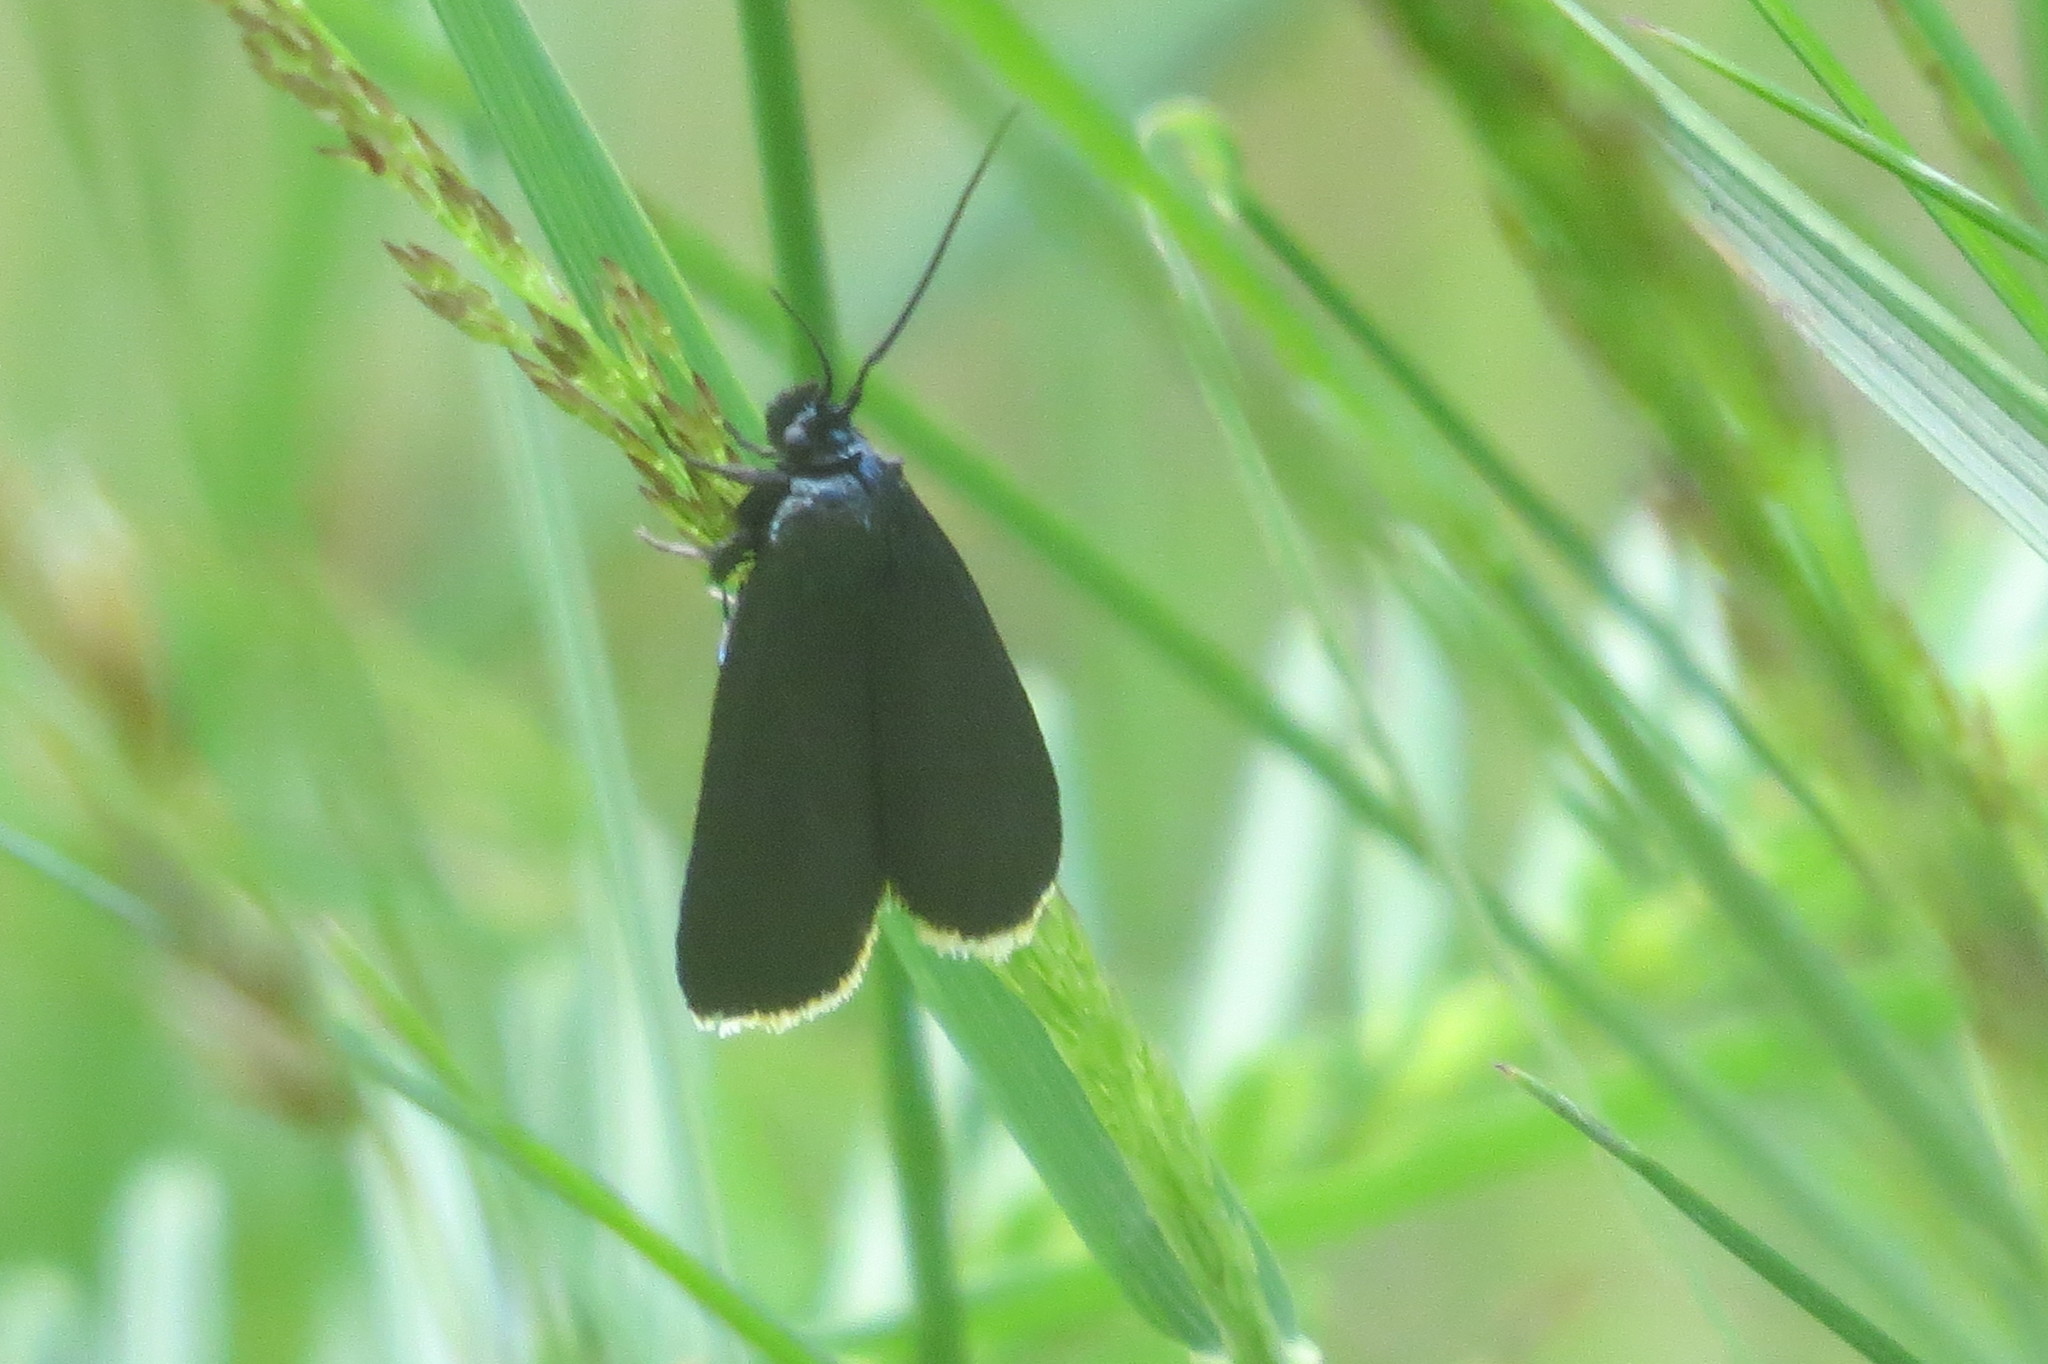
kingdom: Animalia
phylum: Arthropoda
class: Insecta
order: Lepidoptera
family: Pyralidae
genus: Catastia
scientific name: Catastia marginea
